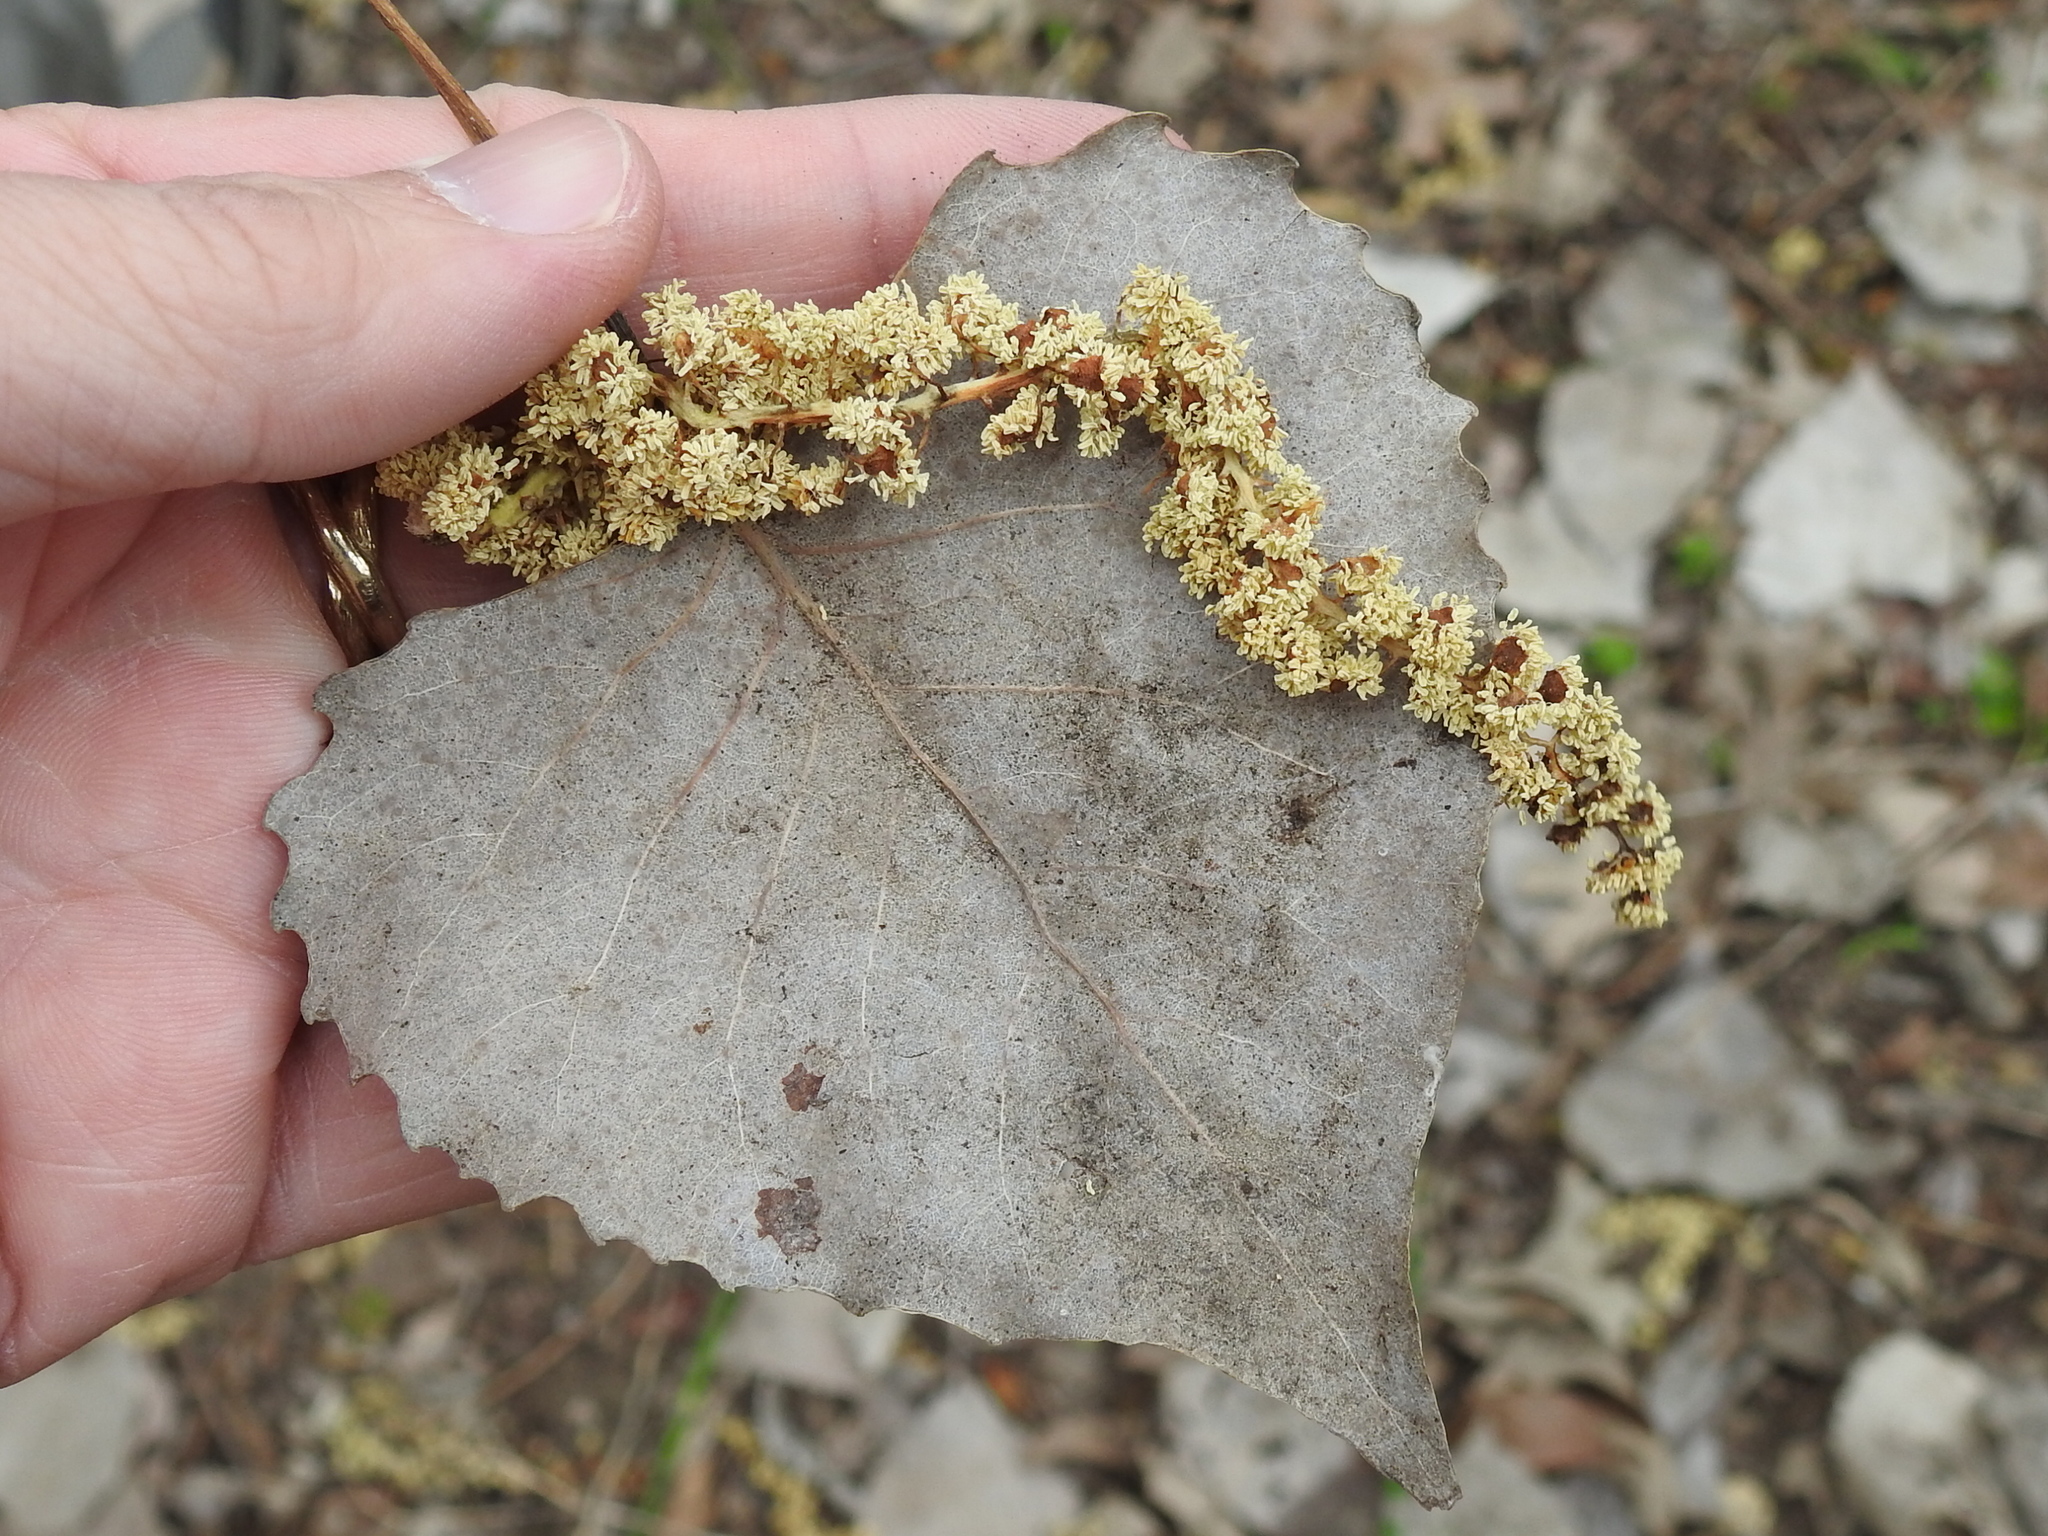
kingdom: Plantae
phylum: Tracheophyta
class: Magnoliopsida
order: Malpighiales
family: Salicaceae
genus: Populus
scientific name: Populus deltoides
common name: Eastern cottonwood
